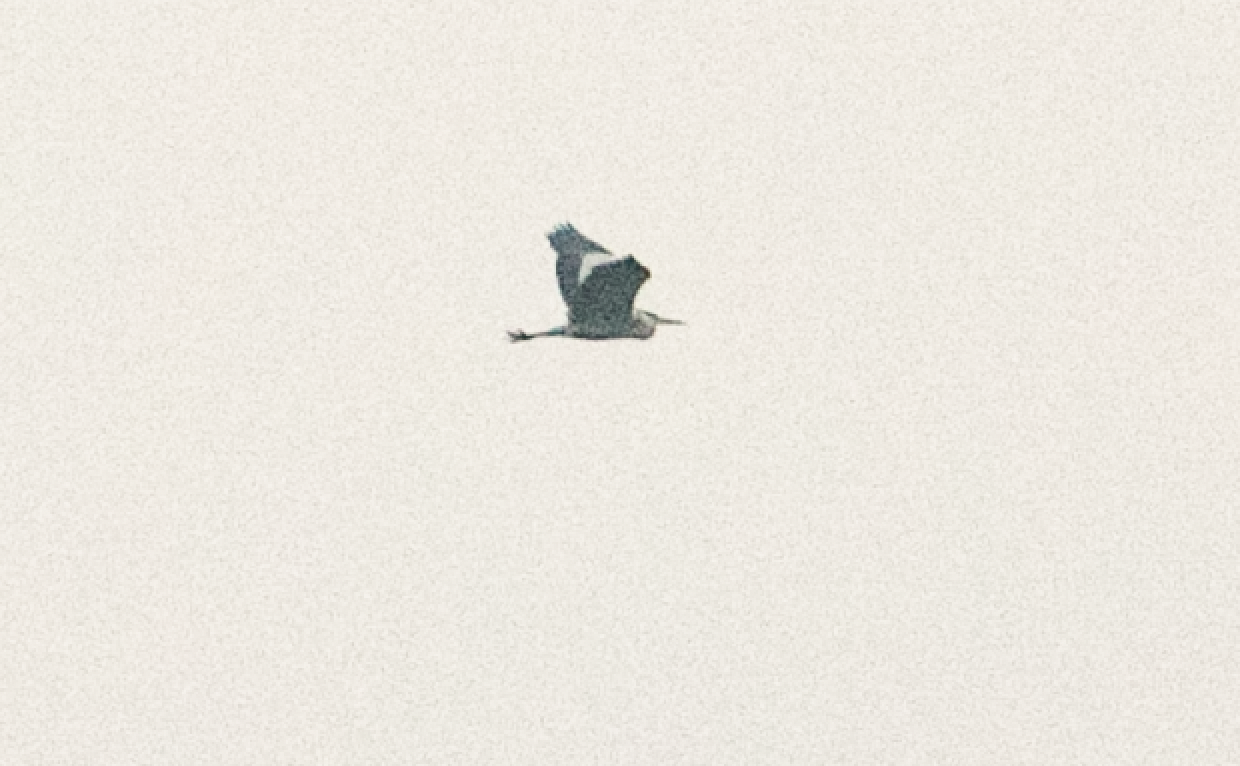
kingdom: Animalia
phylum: Chordata
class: Aves
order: Pelecaniformes
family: Ardeidae
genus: Ardea
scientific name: Ardea cinerea
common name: Grey heron
